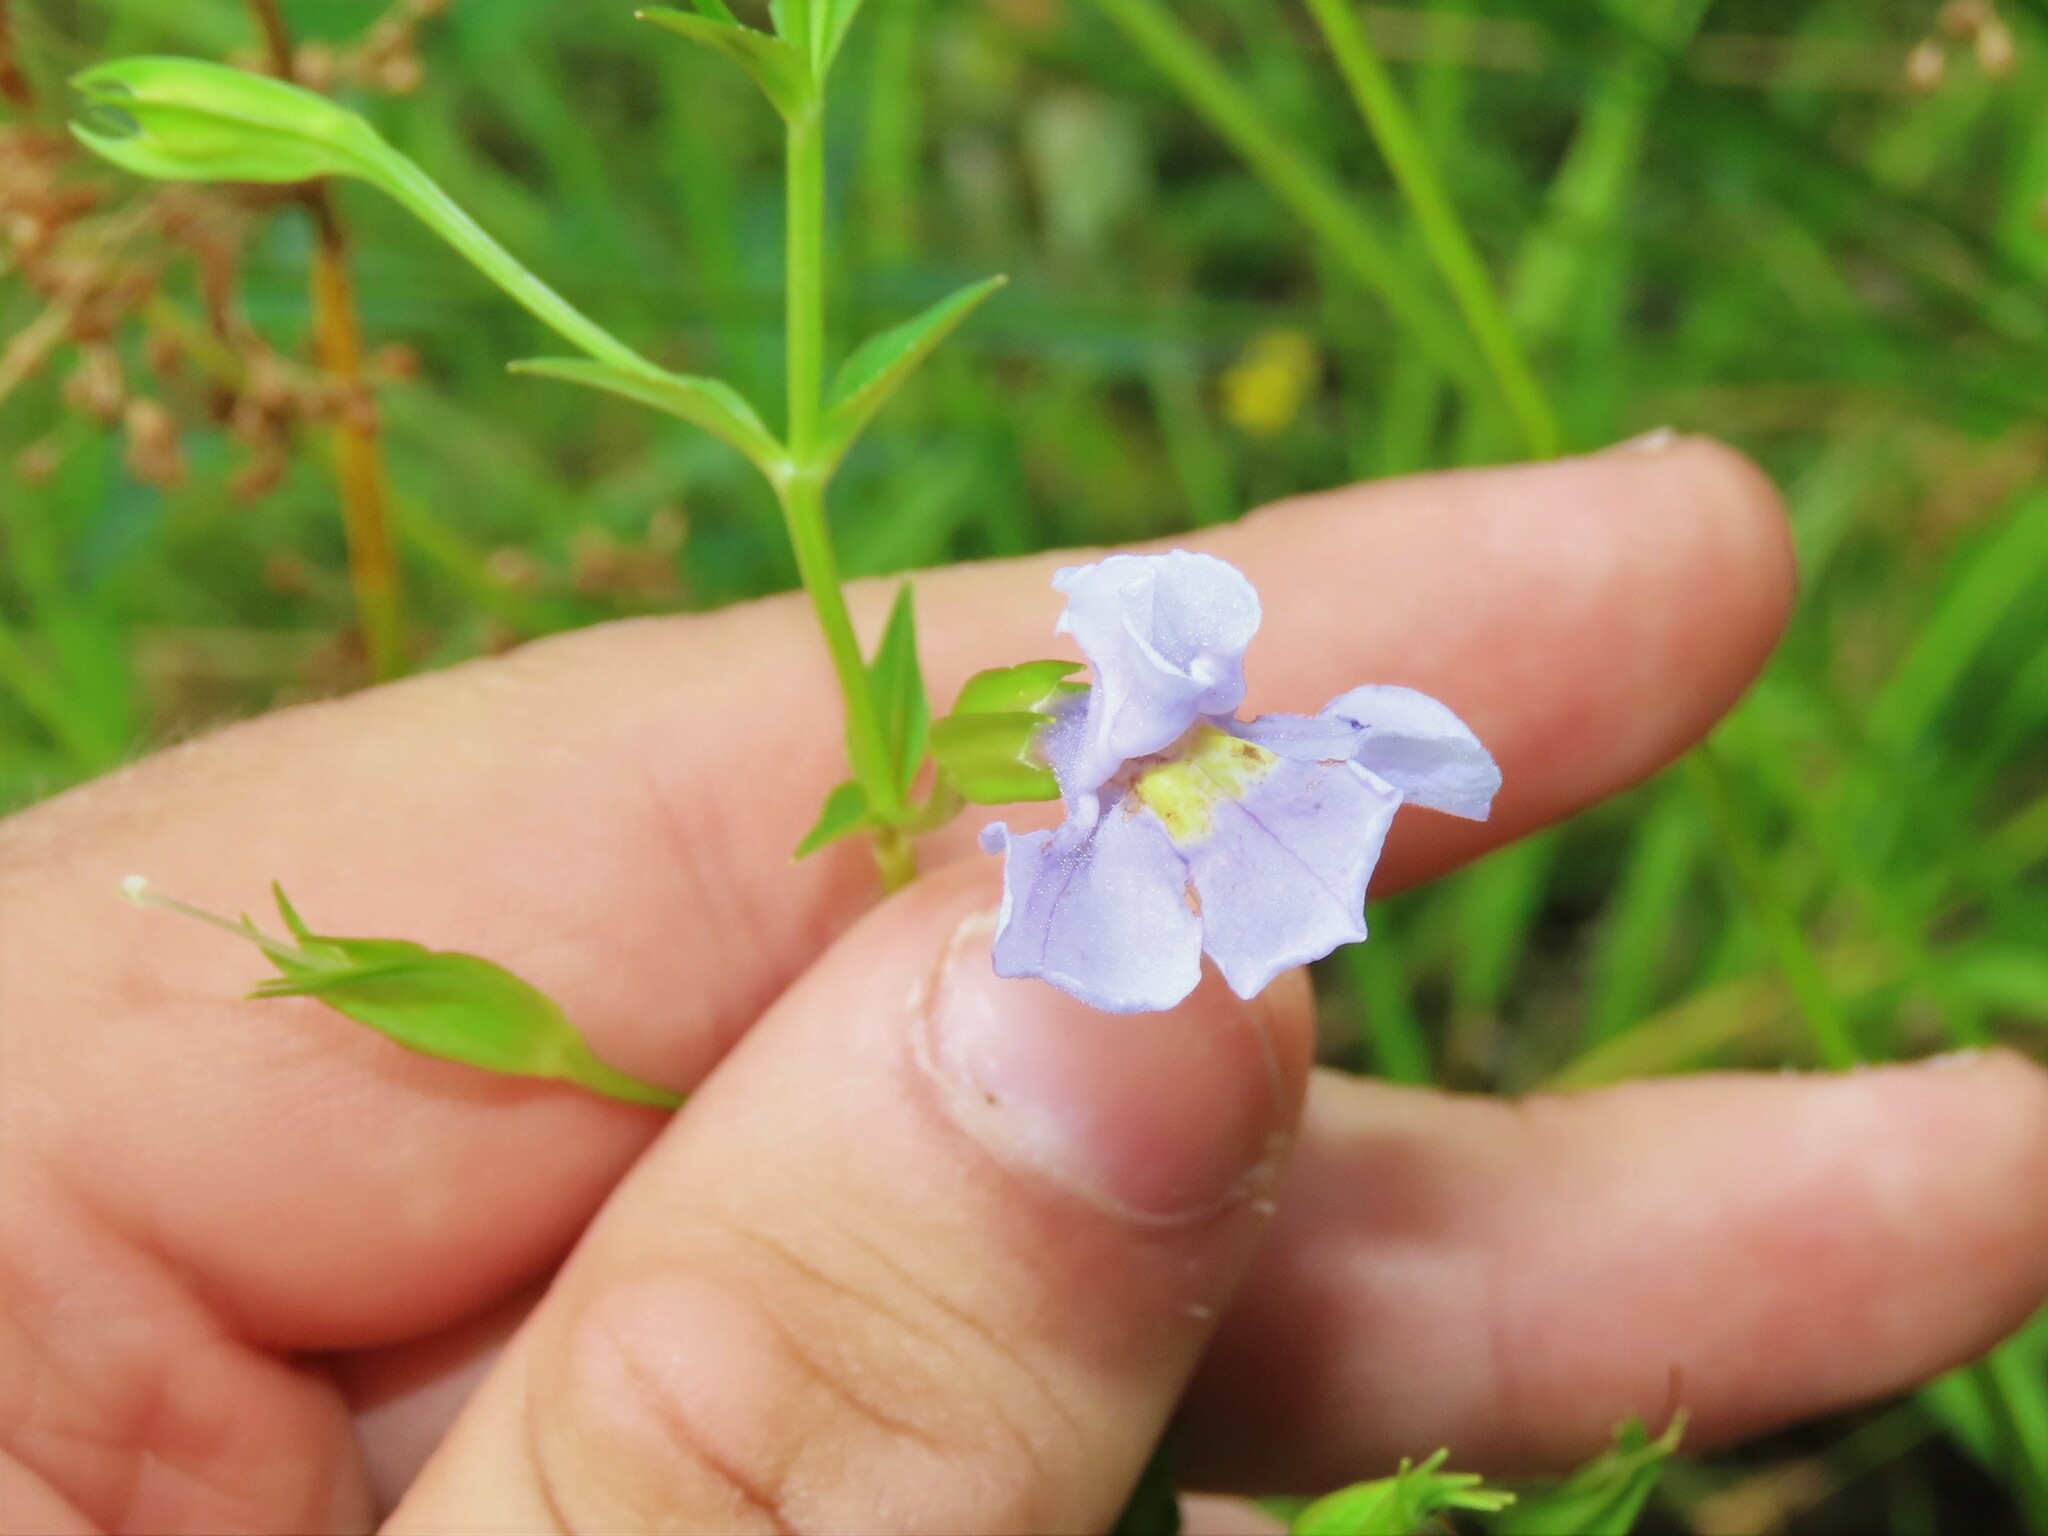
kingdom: Plantae
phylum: Tracheophyta
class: Magnoliopsida
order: Lamiales
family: Phrymaceae
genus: Mimulus
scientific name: Mimulus ringens
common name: Allegheny monkeyflower
